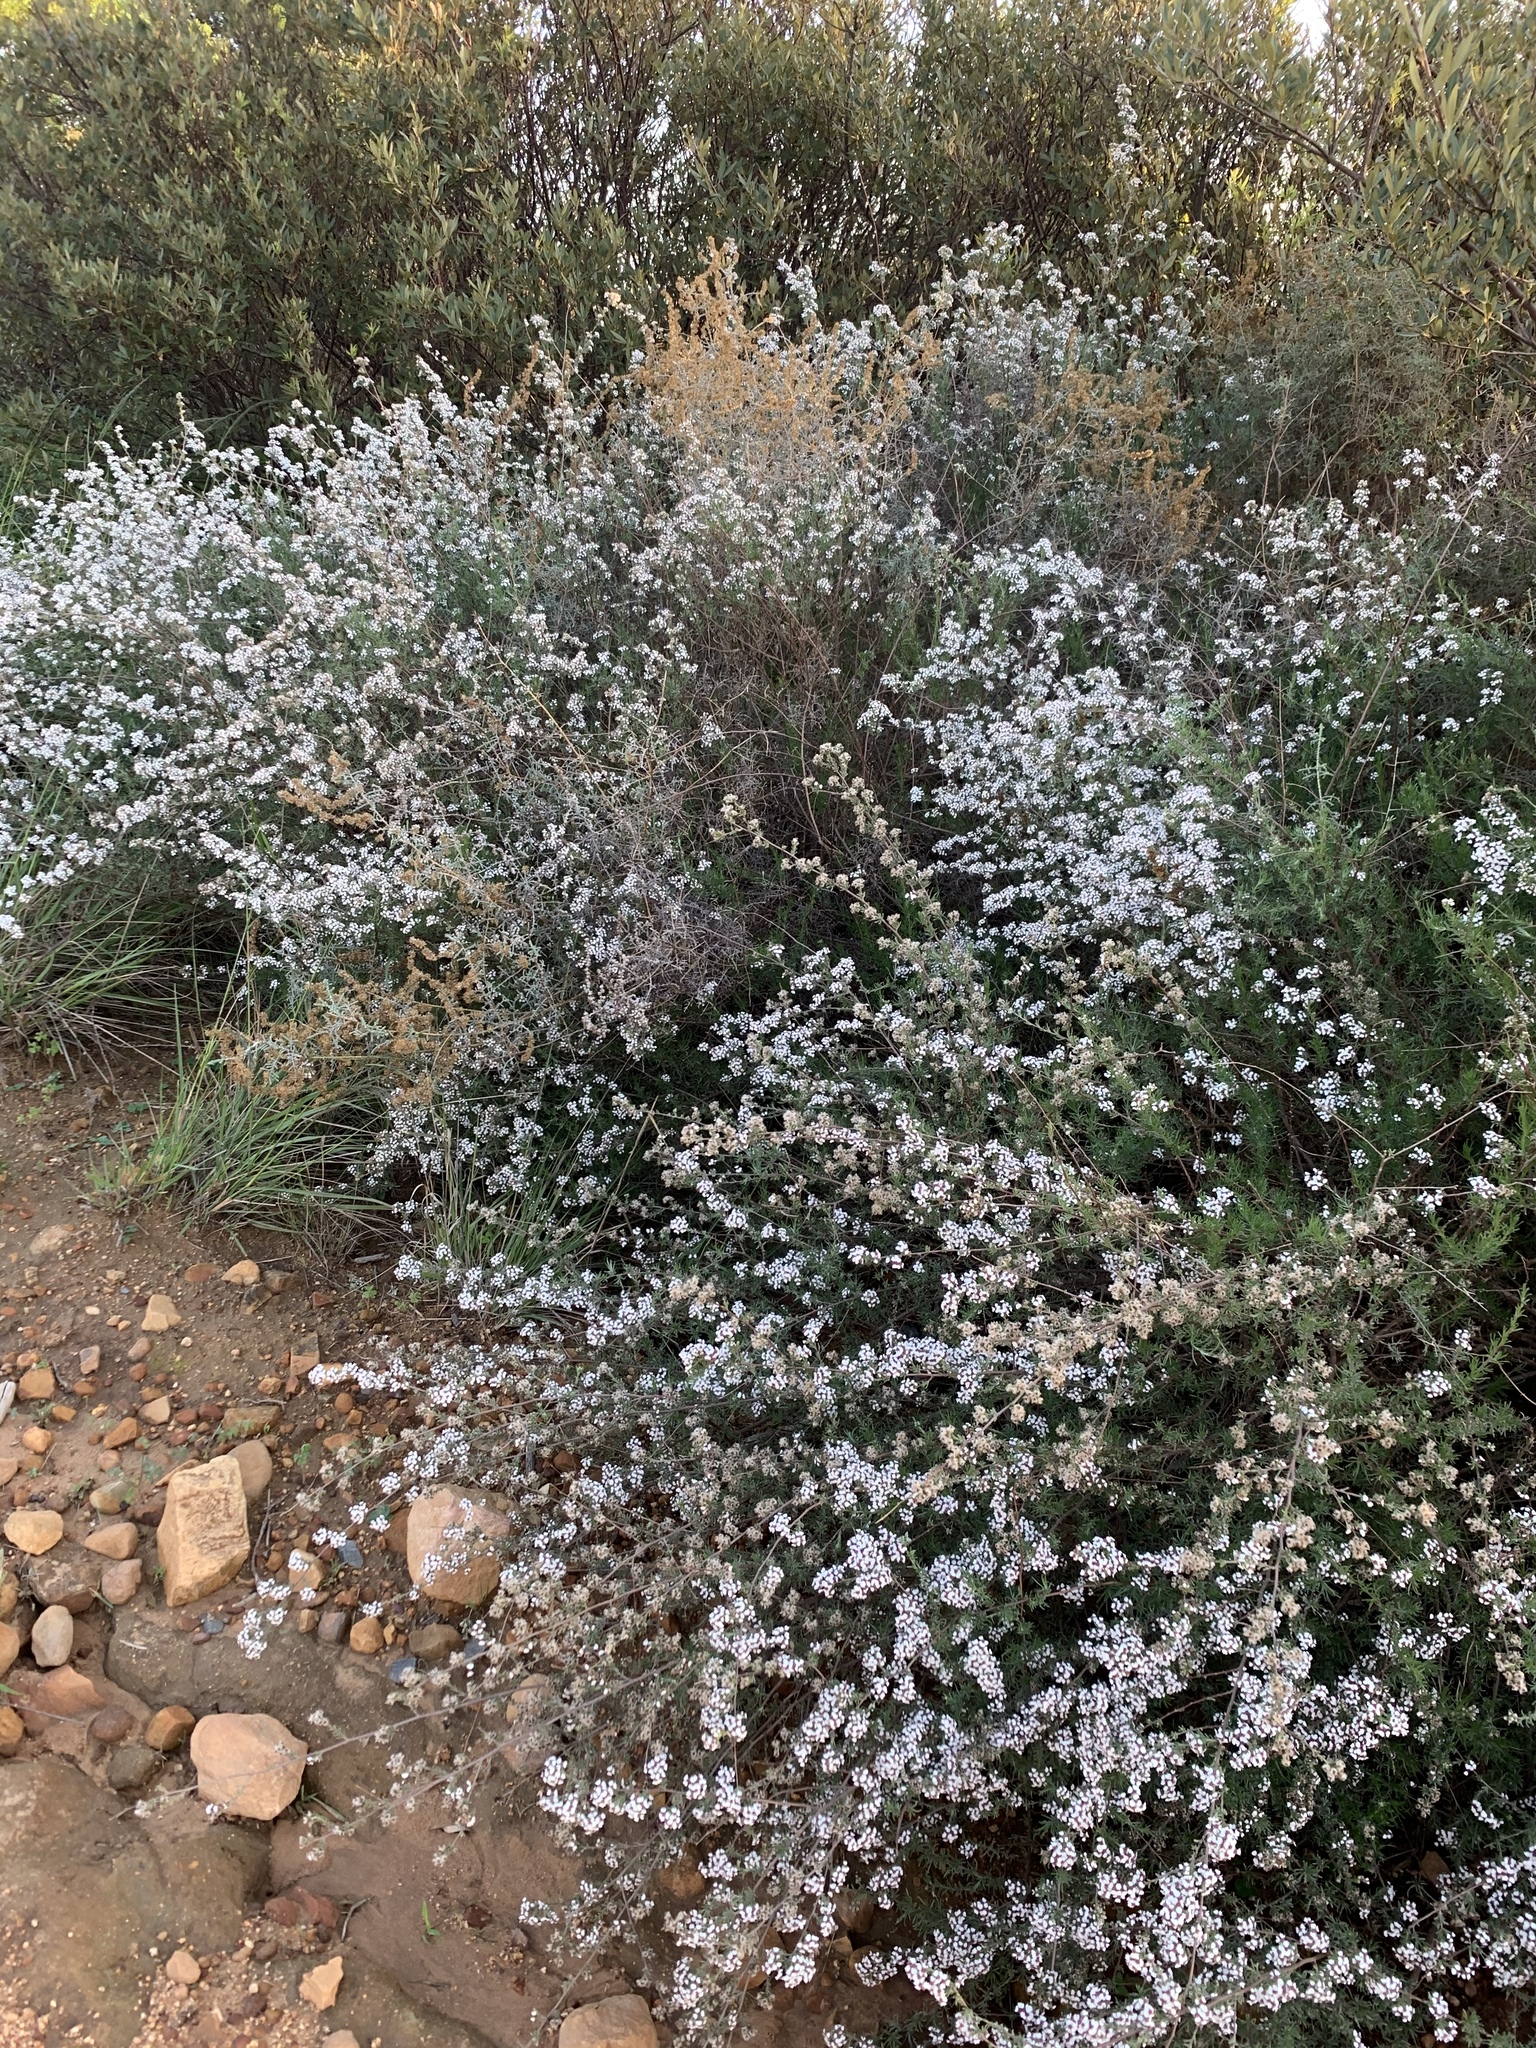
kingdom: Plantae
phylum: Tracheophyta
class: Magnoliopsida
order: Asterales
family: Asteraceae
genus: Eriocephalus
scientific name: Eriocephalus africanus
